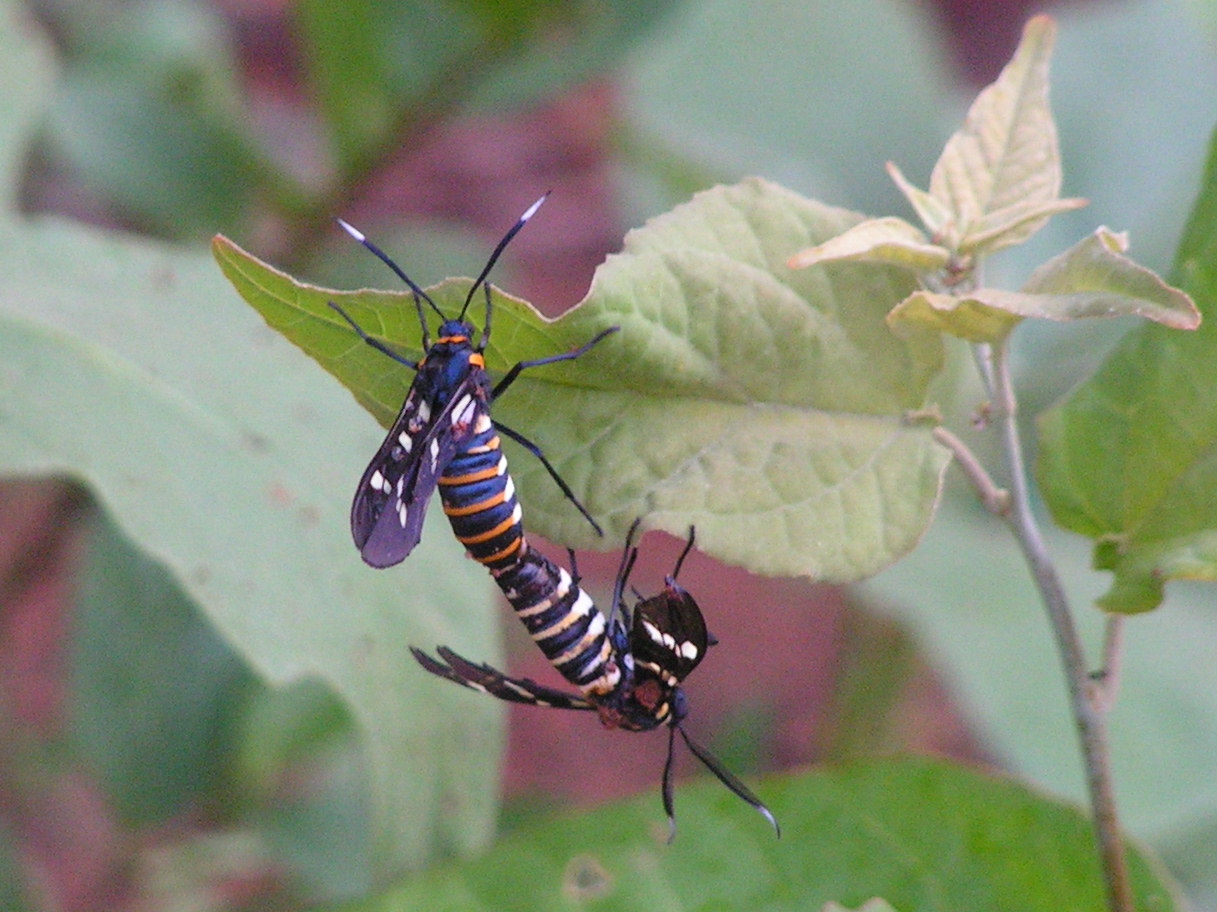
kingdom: Animalia
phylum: Arthropoda
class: Insecta
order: Lepidoptera
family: Erebidae
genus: Syntomeida
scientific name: Syntomeida melanthus
